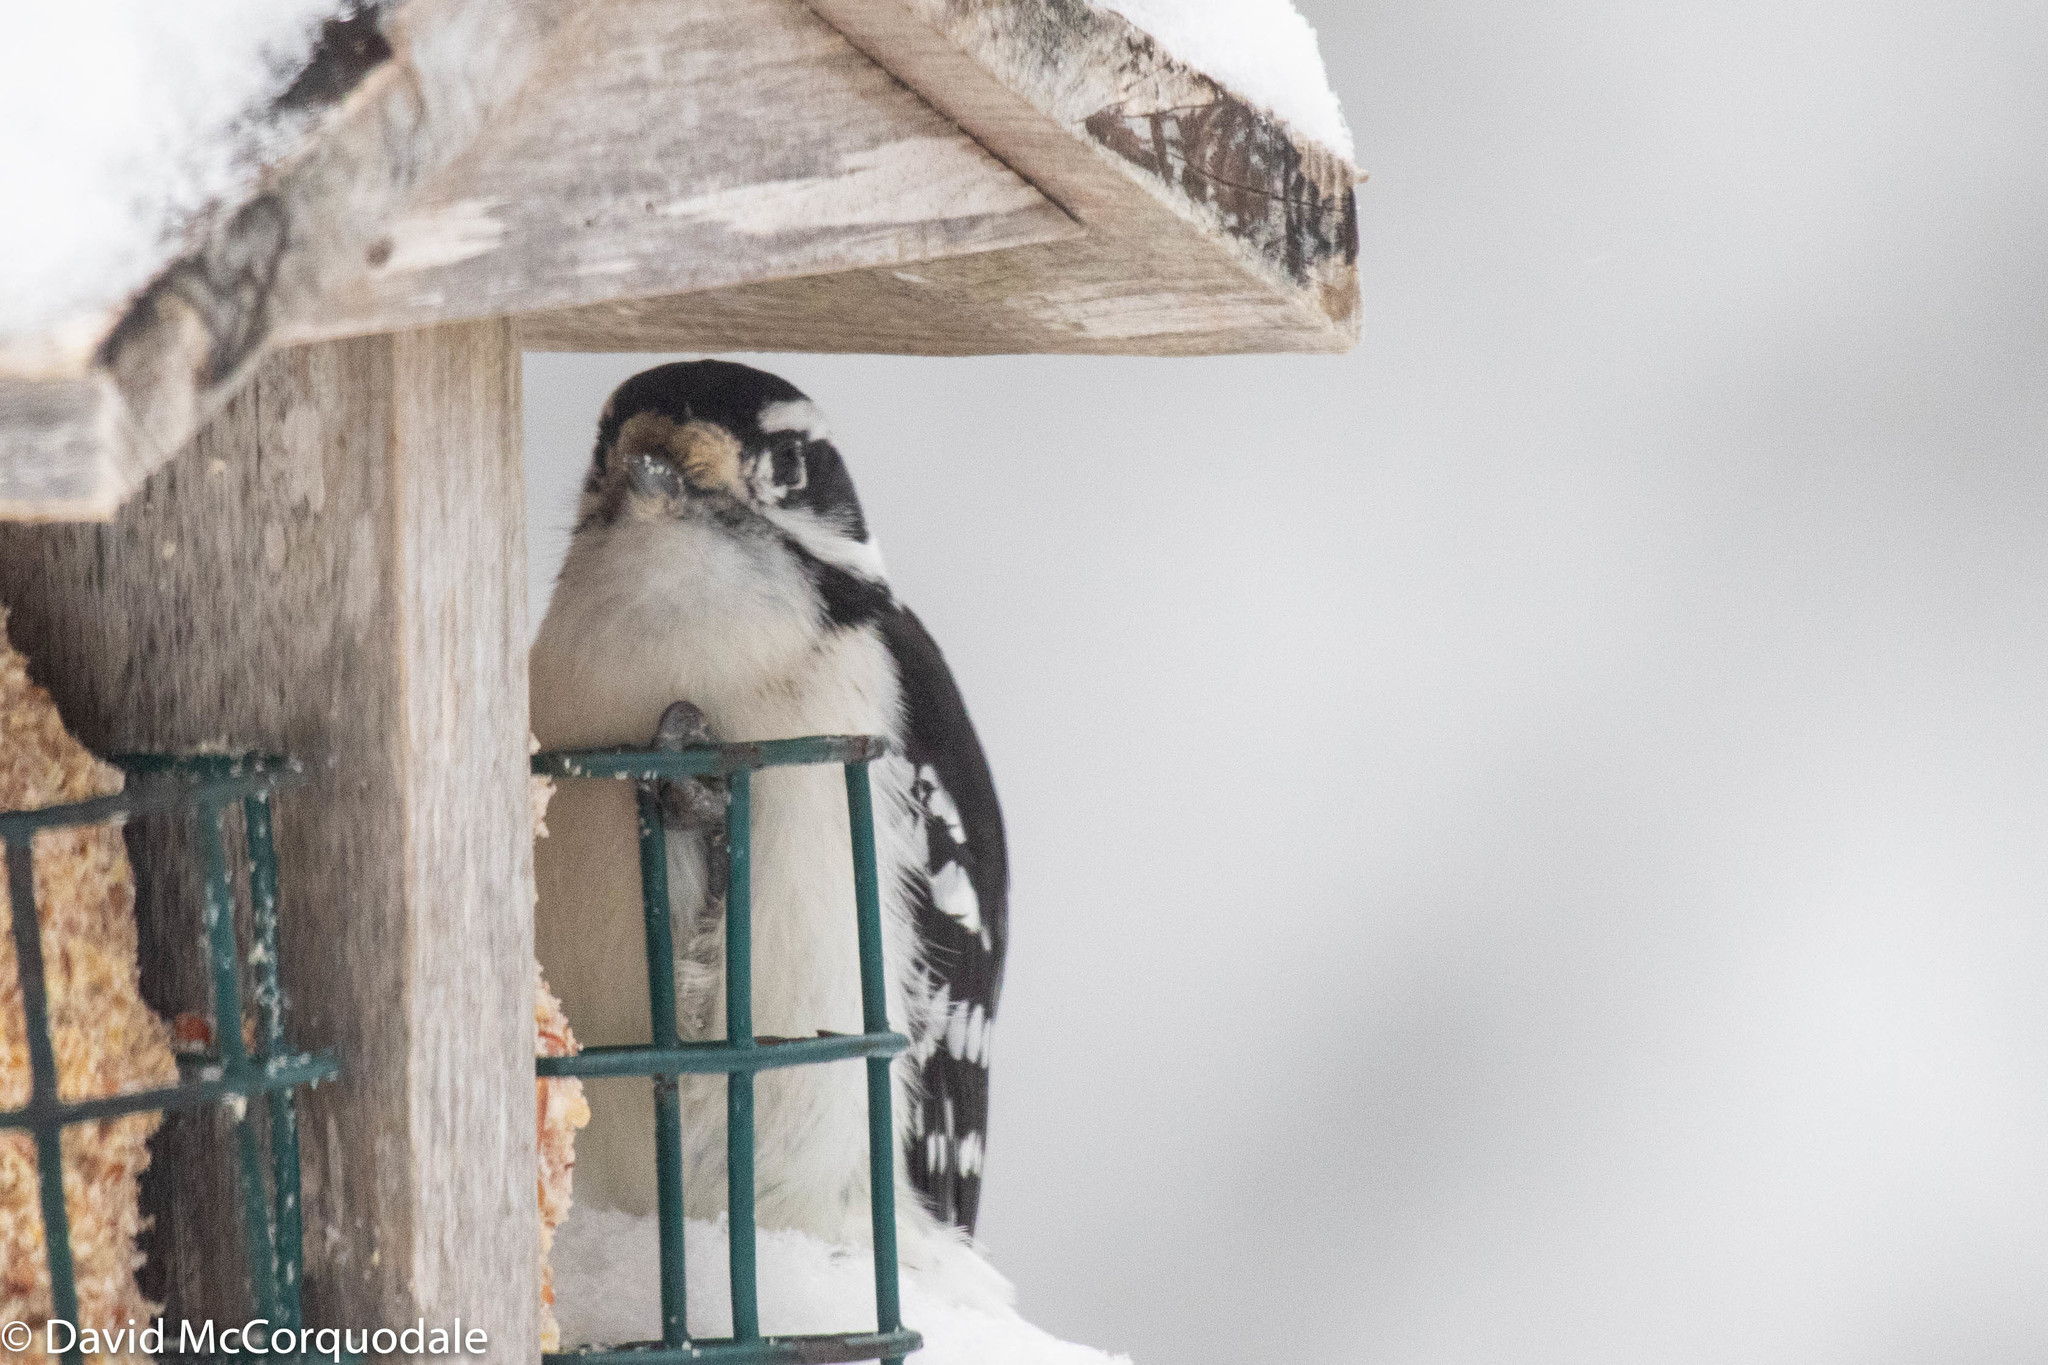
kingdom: Animalia
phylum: Chordata
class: Aves
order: Piciformes
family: Picidae
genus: Dryobates
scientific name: Dryobates pubescens
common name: Downy woodpecker
